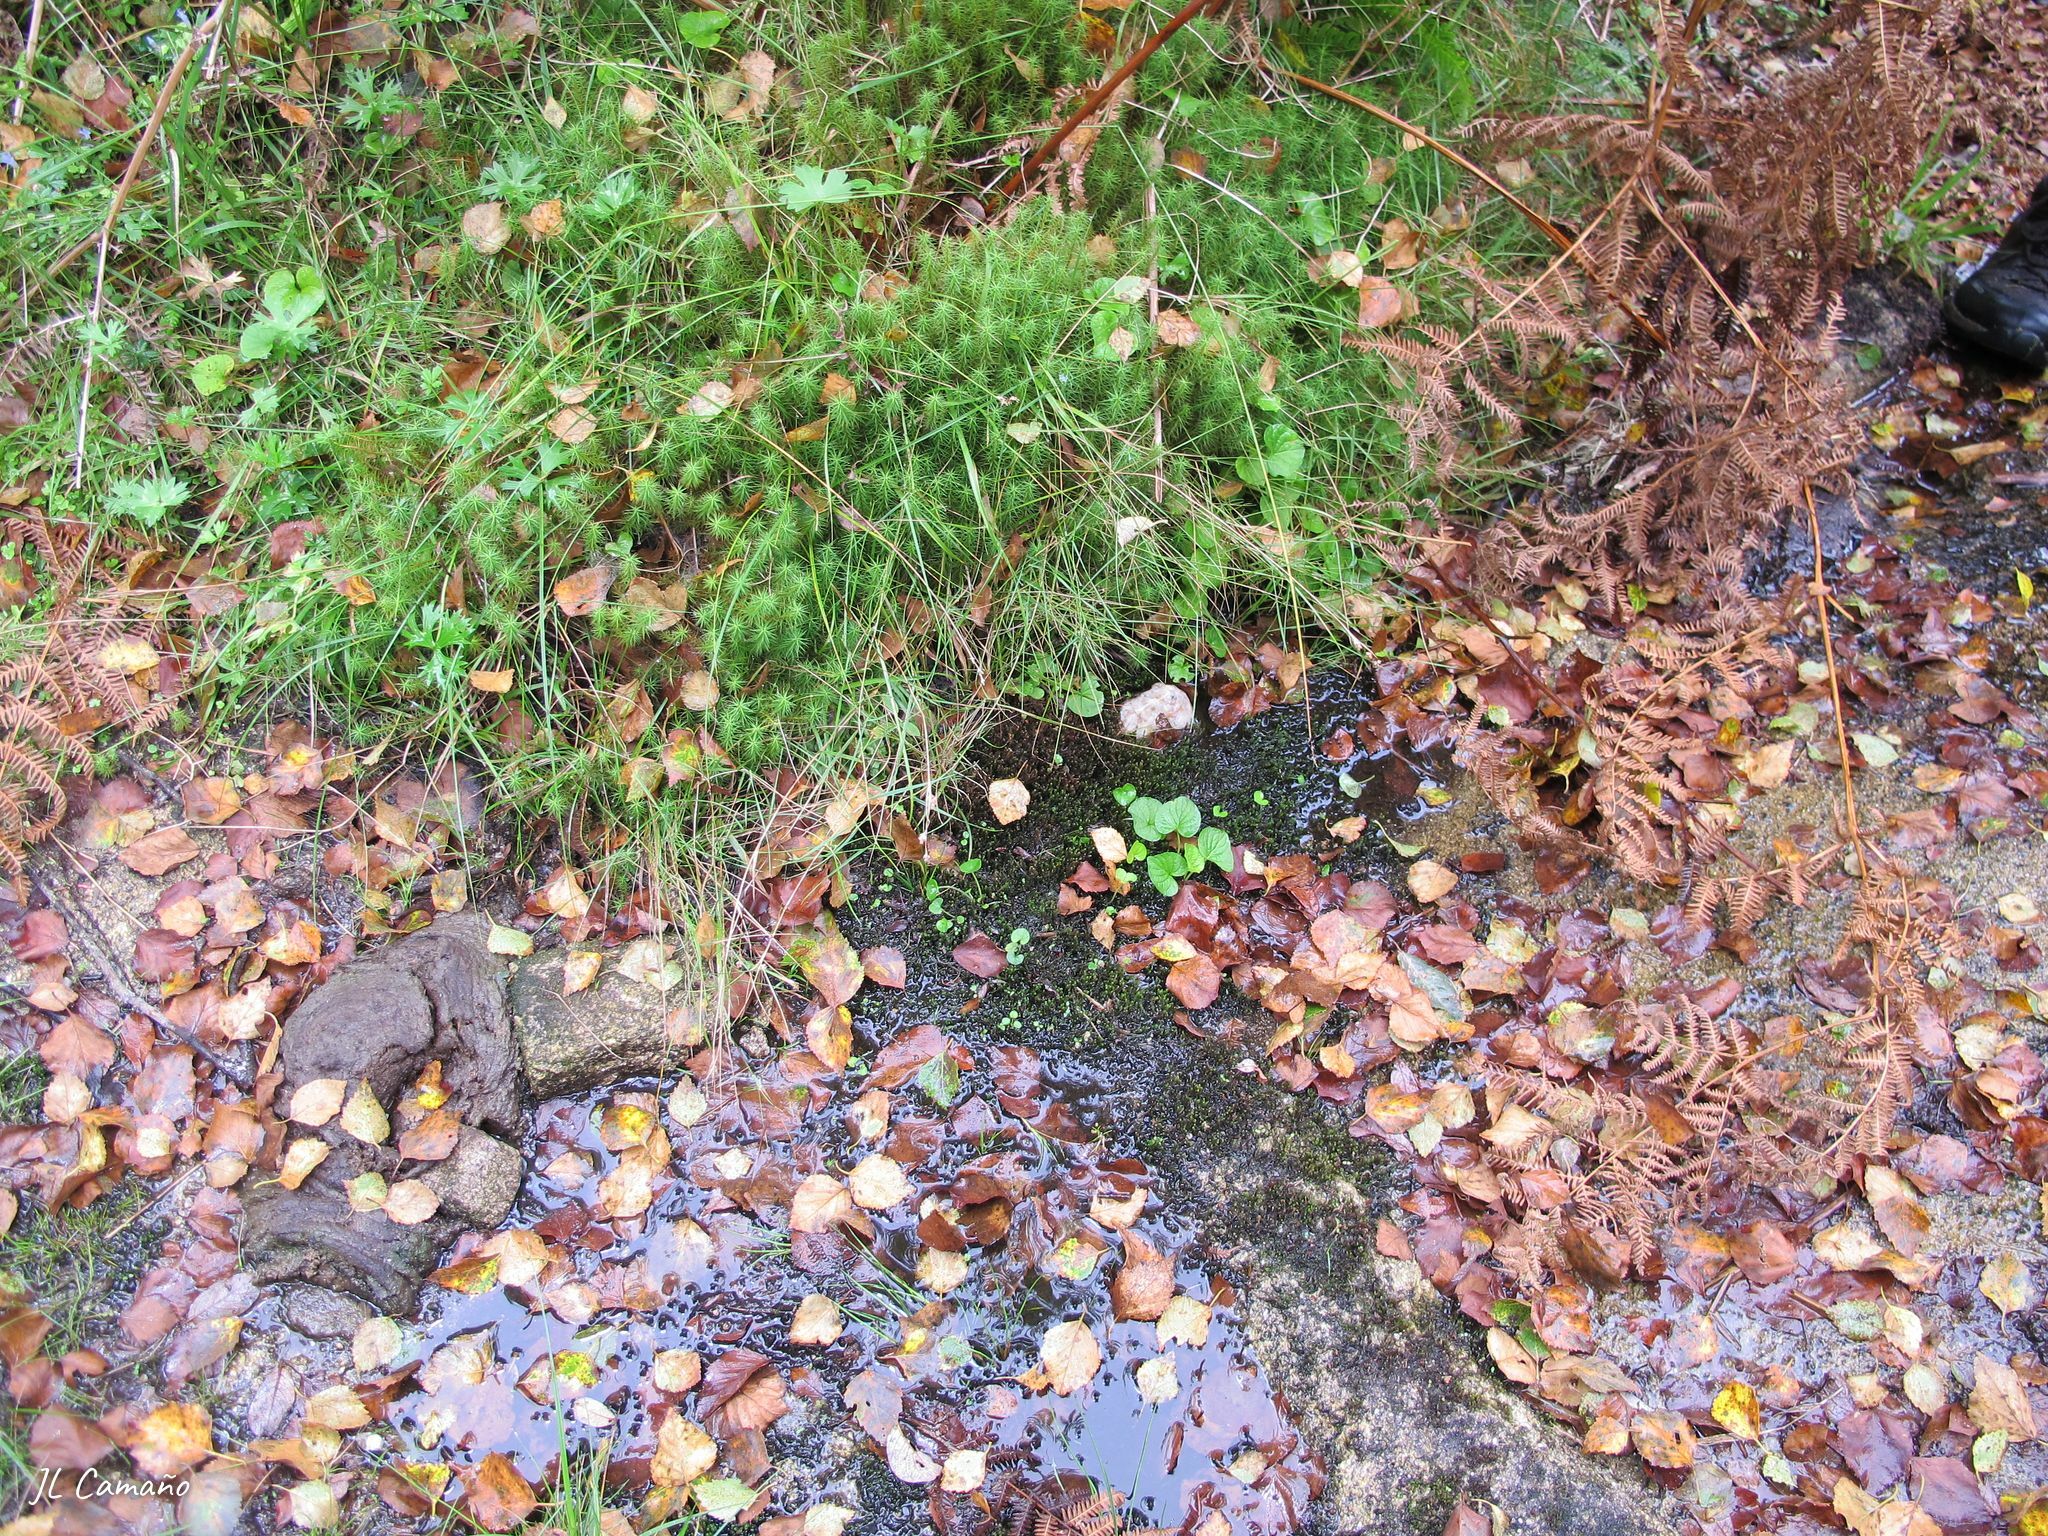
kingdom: Plantae
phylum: Marchantiophyta
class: Jungermanniopsida
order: Jungermanniales
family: Gymnomitriaceae
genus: Nardia
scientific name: Nardia compressa
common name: Compressed flapwort
